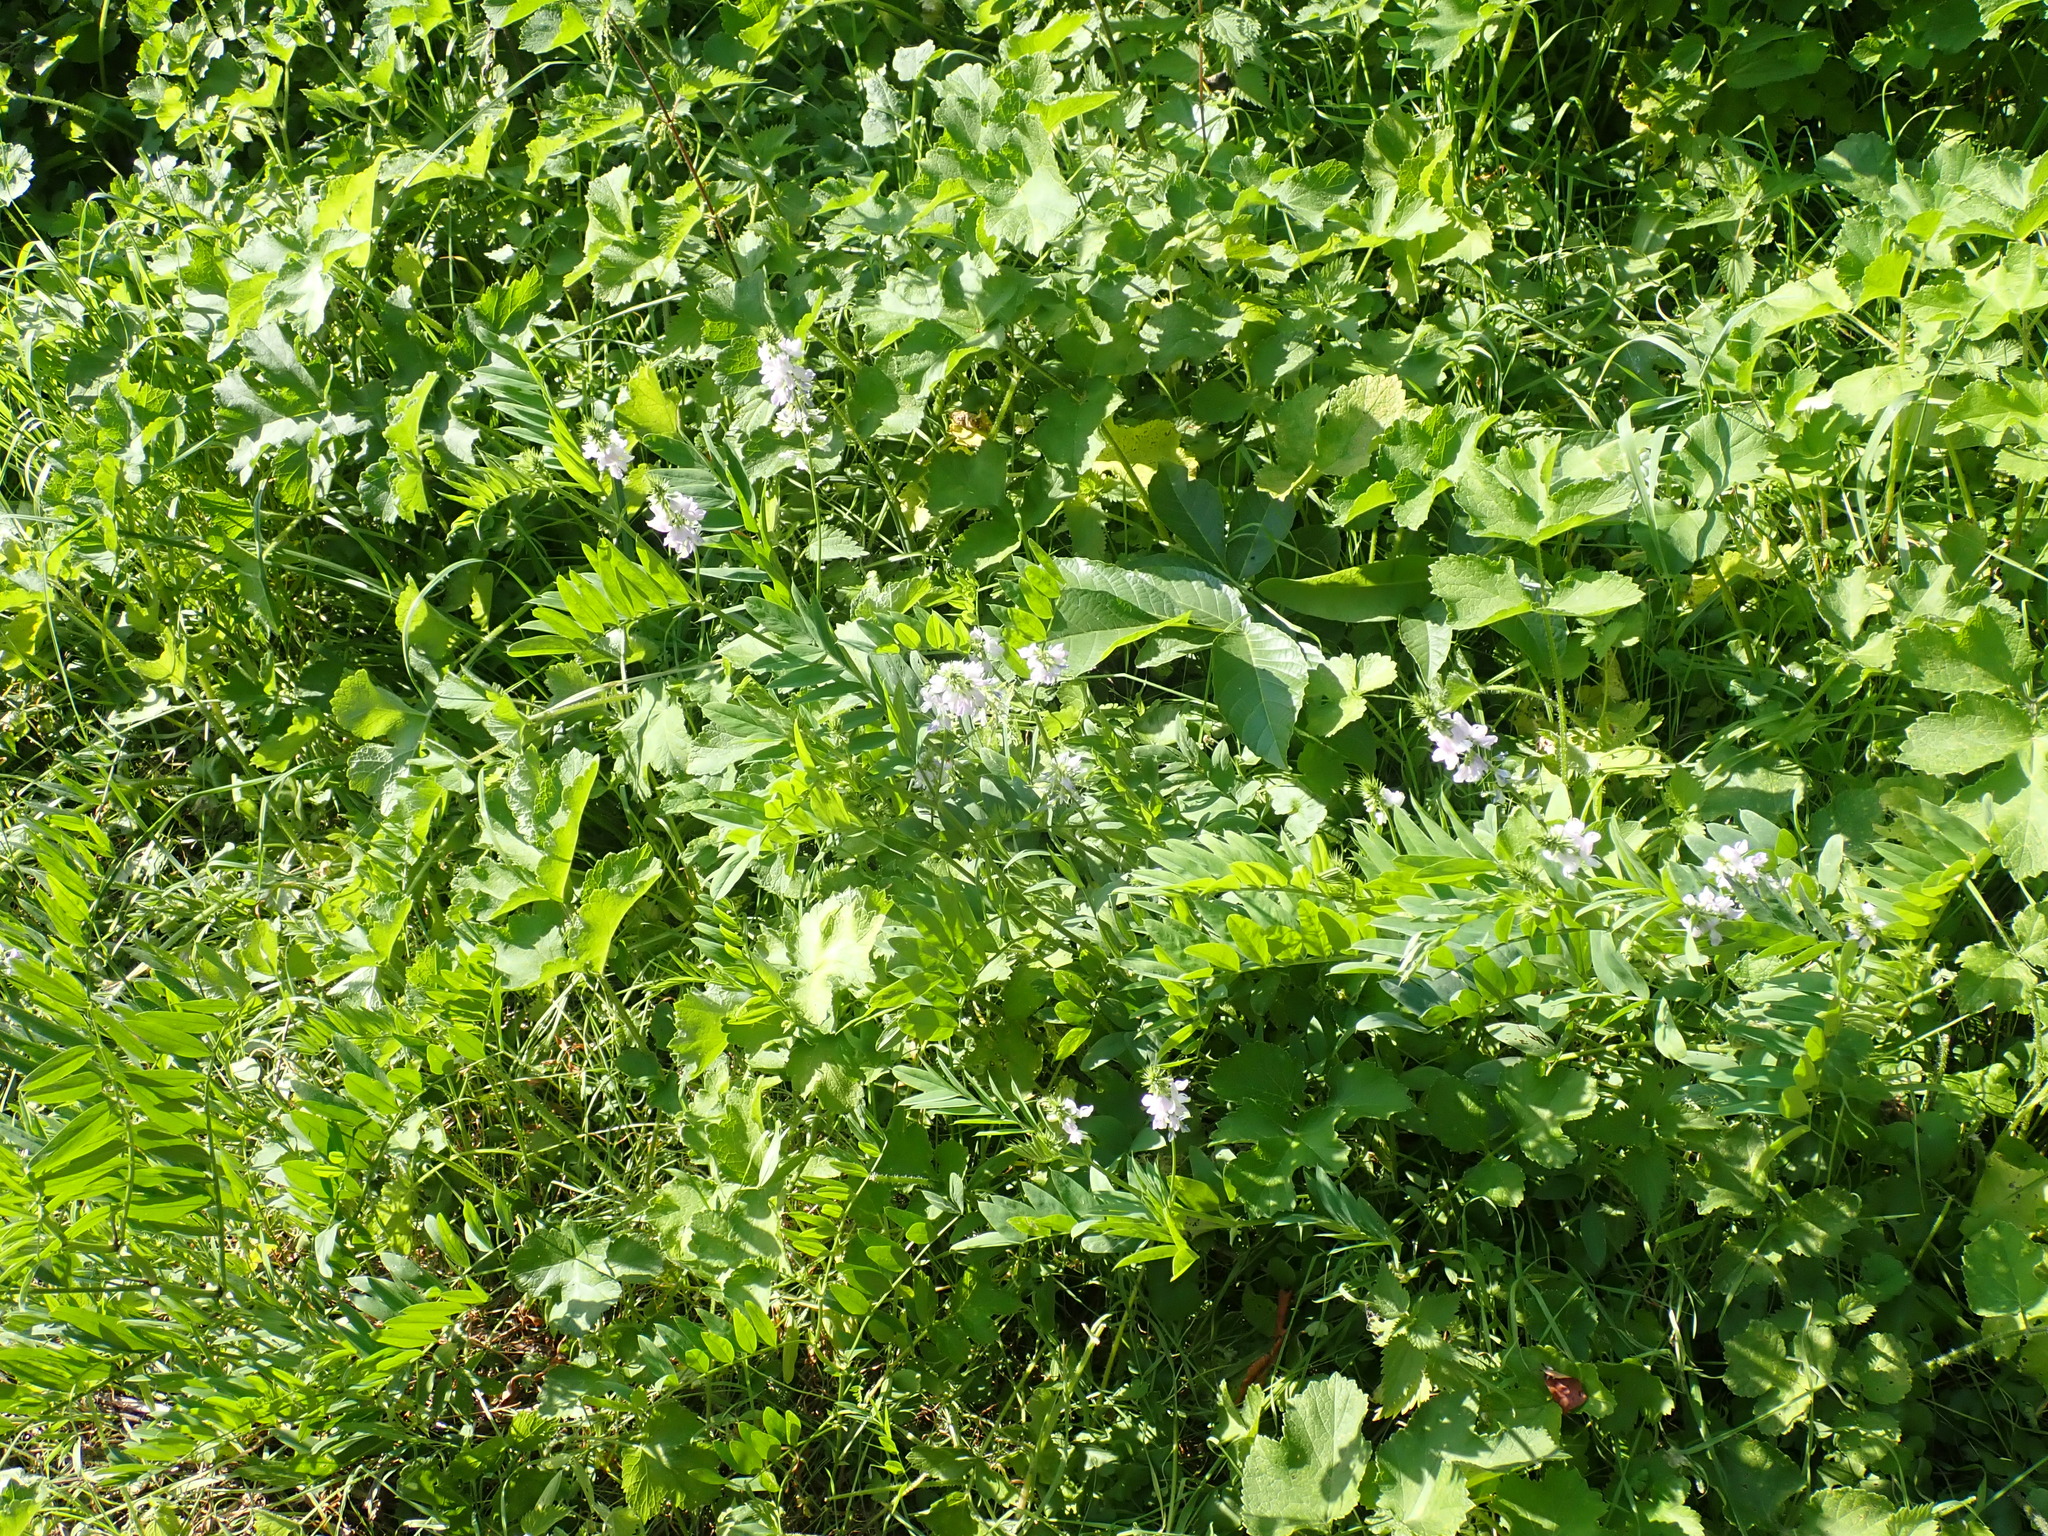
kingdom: Plantae
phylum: Tracheophyta
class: Magnoliopsida
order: Fabales
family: Fabaceae
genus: Galega
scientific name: Galega officinalis
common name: Goat's-rue
